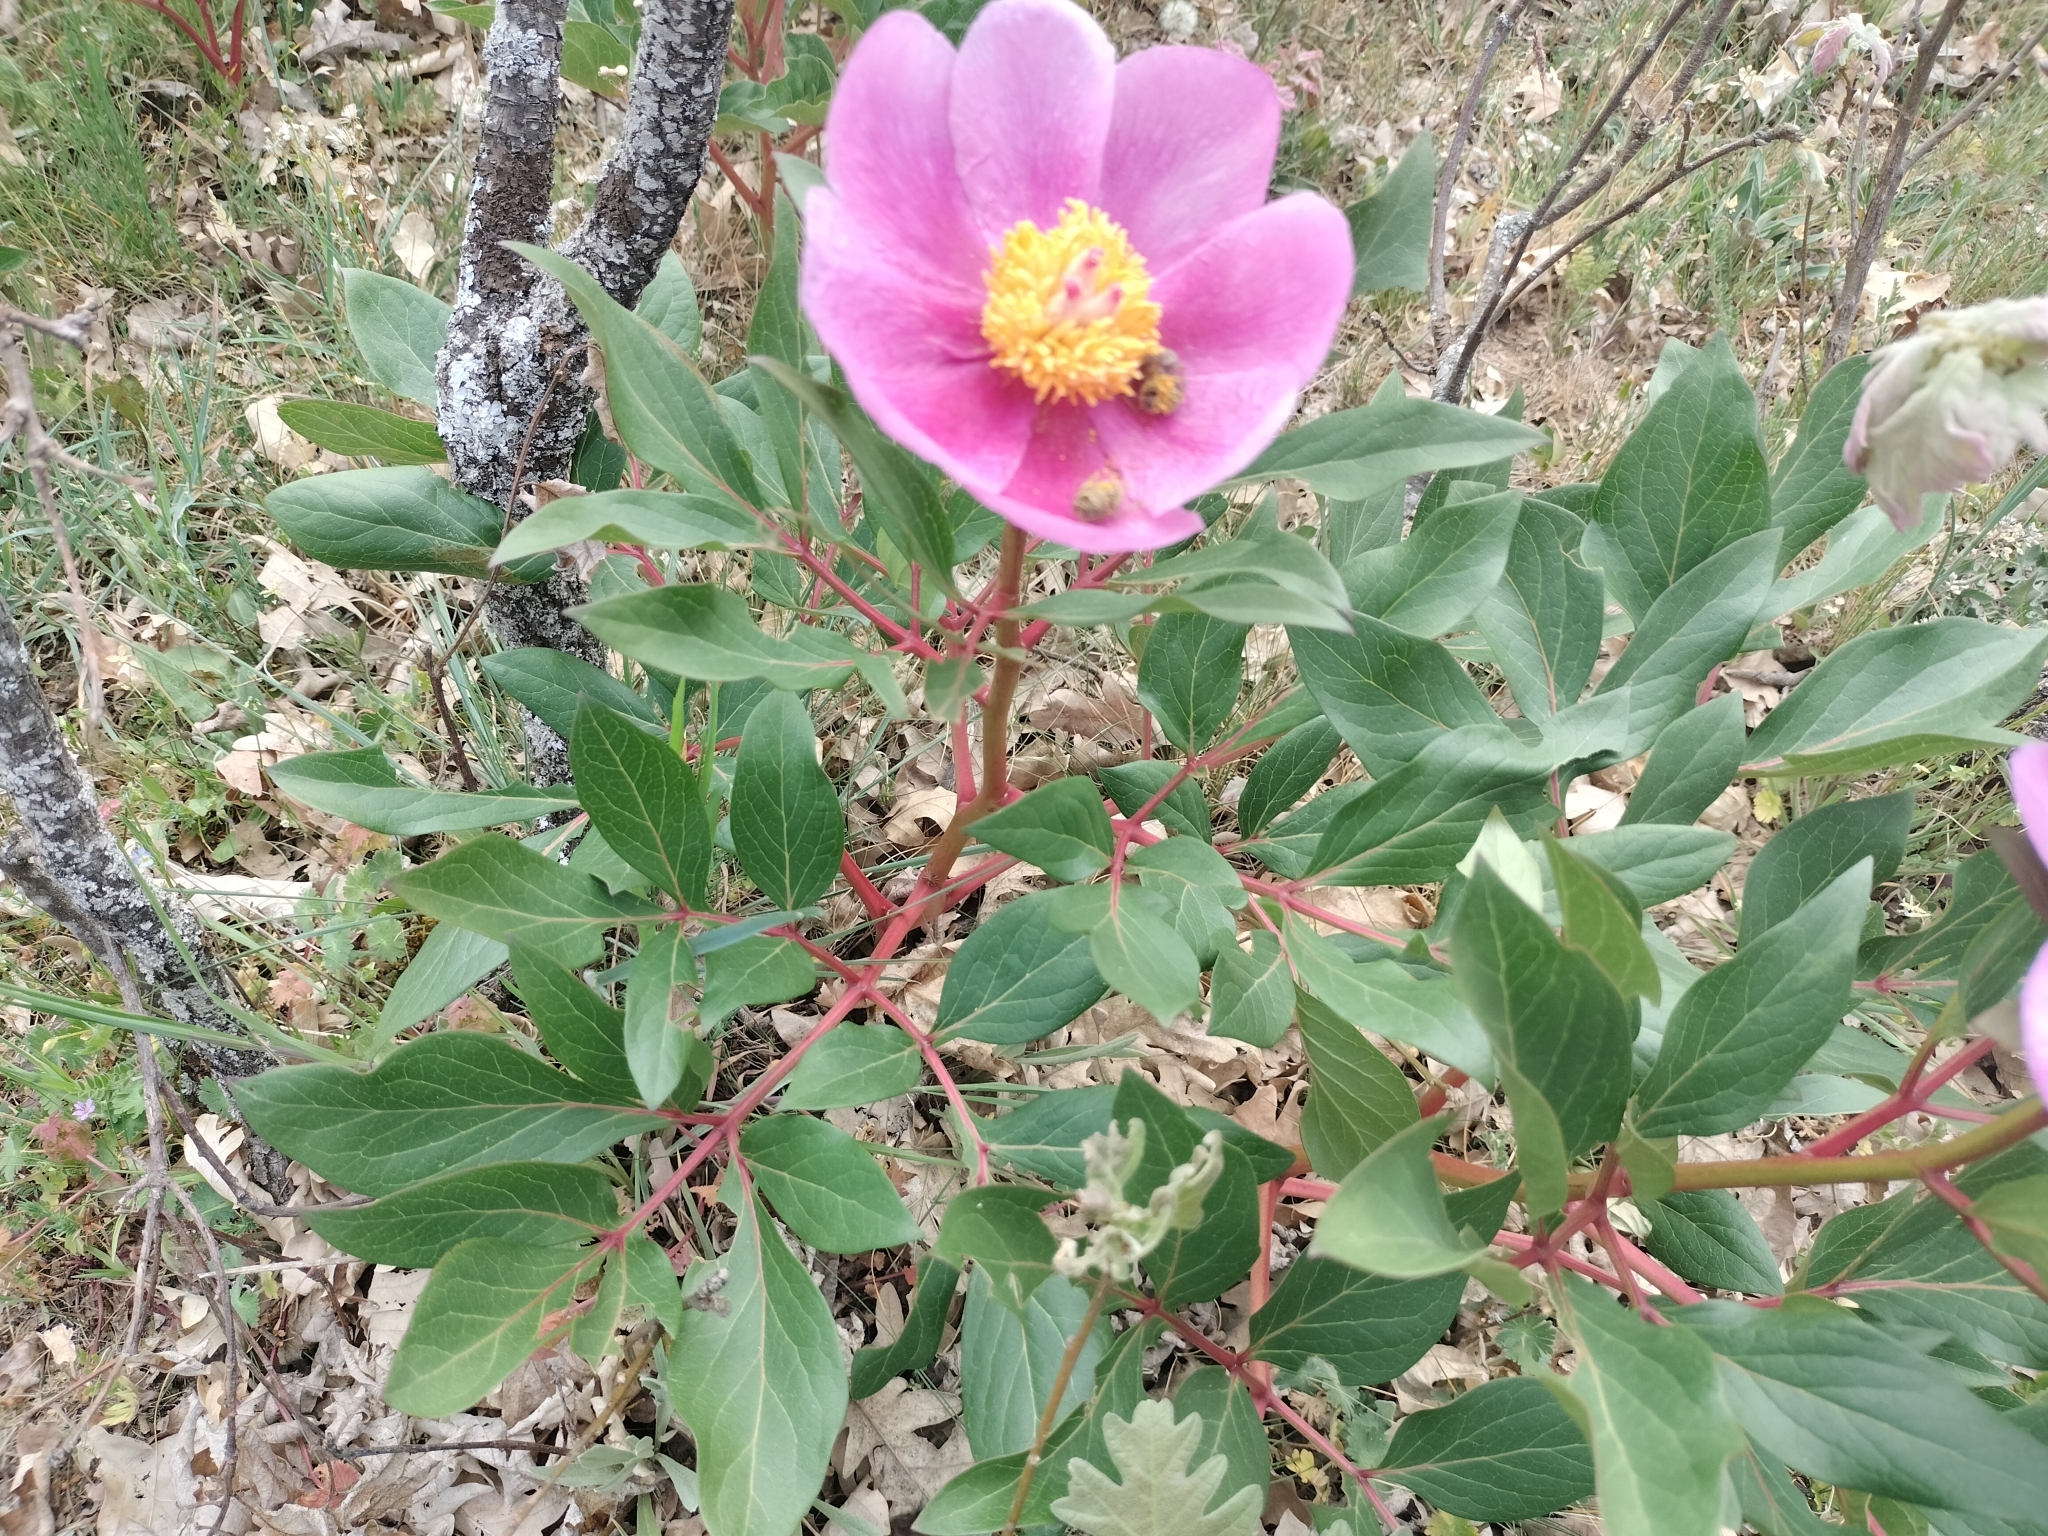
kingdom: Plantae
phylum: Tracheophyta
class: Magnoliopsida
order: Saxifragales
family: Paeoniaceae
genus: Paeonia
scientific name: Paeonia broteroi
